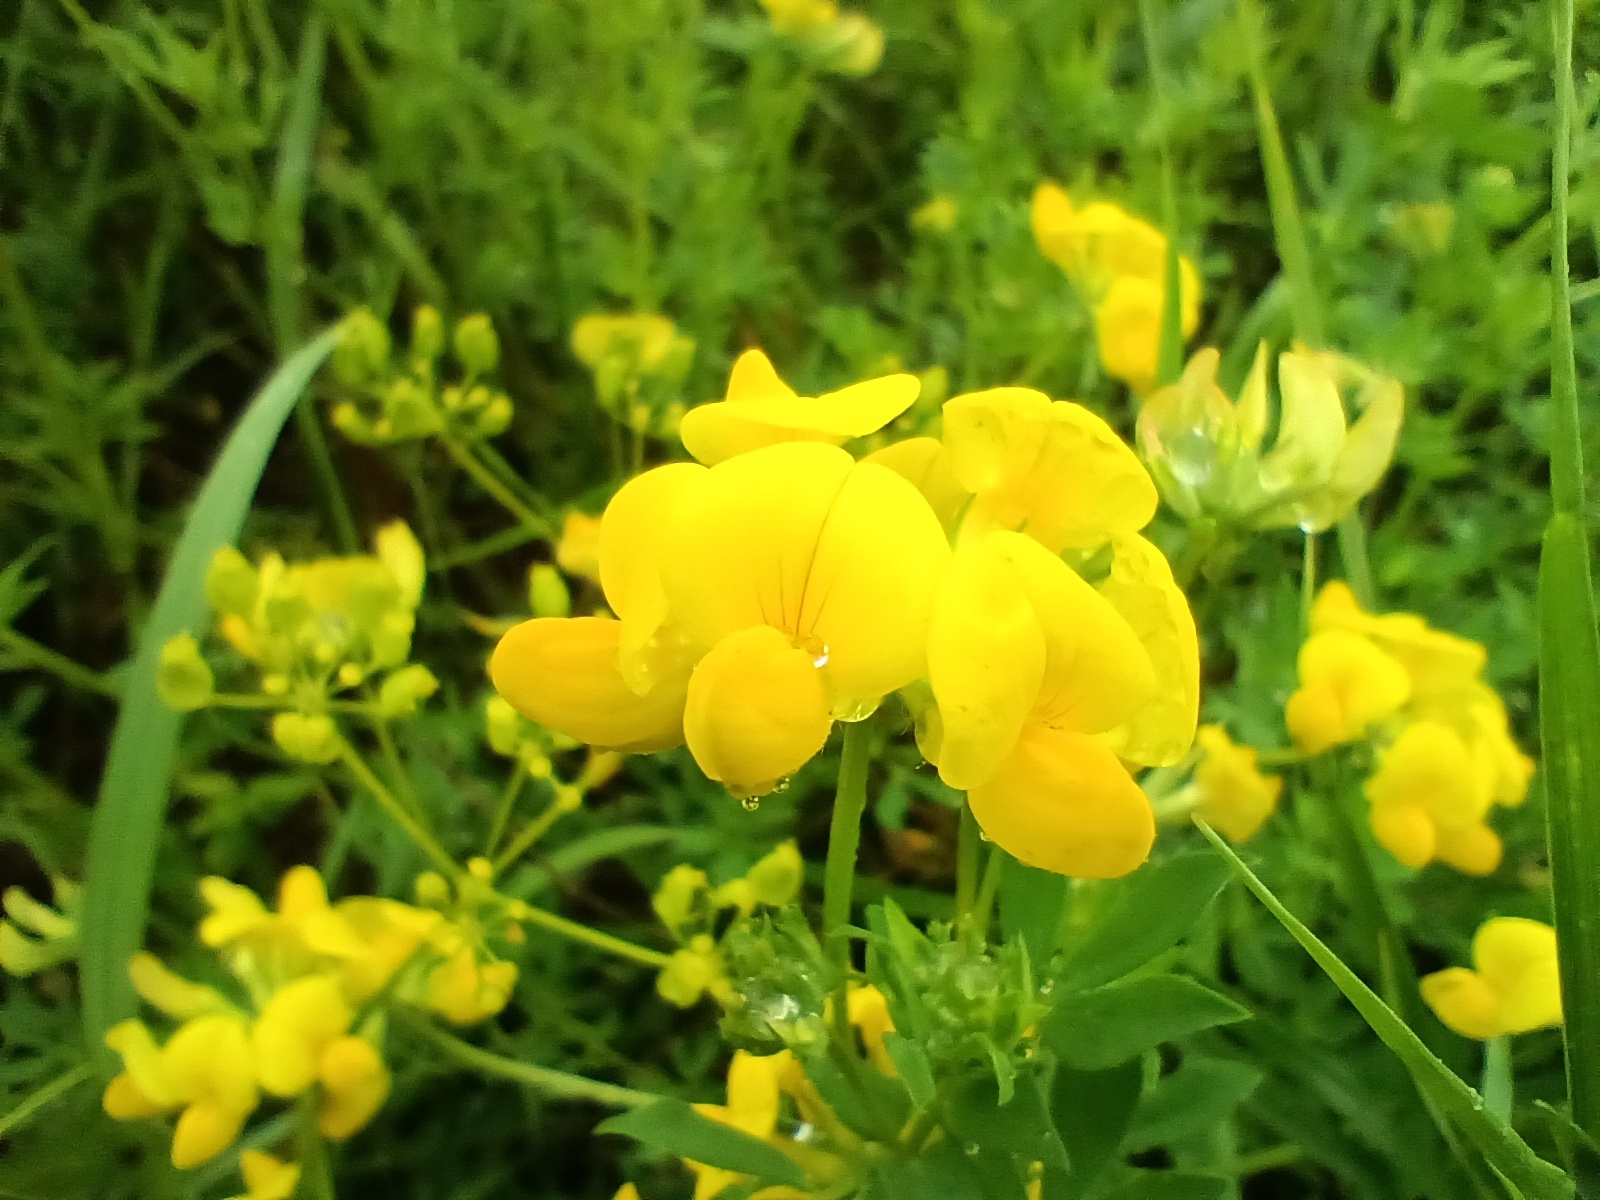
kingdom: Plantae
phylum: Tracheophyta
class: Magnoliopsida
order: Fabales
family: Fabaceae
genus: Lotus
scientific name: Lotus corniculatus
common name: Common bird's-foot-trefoil
